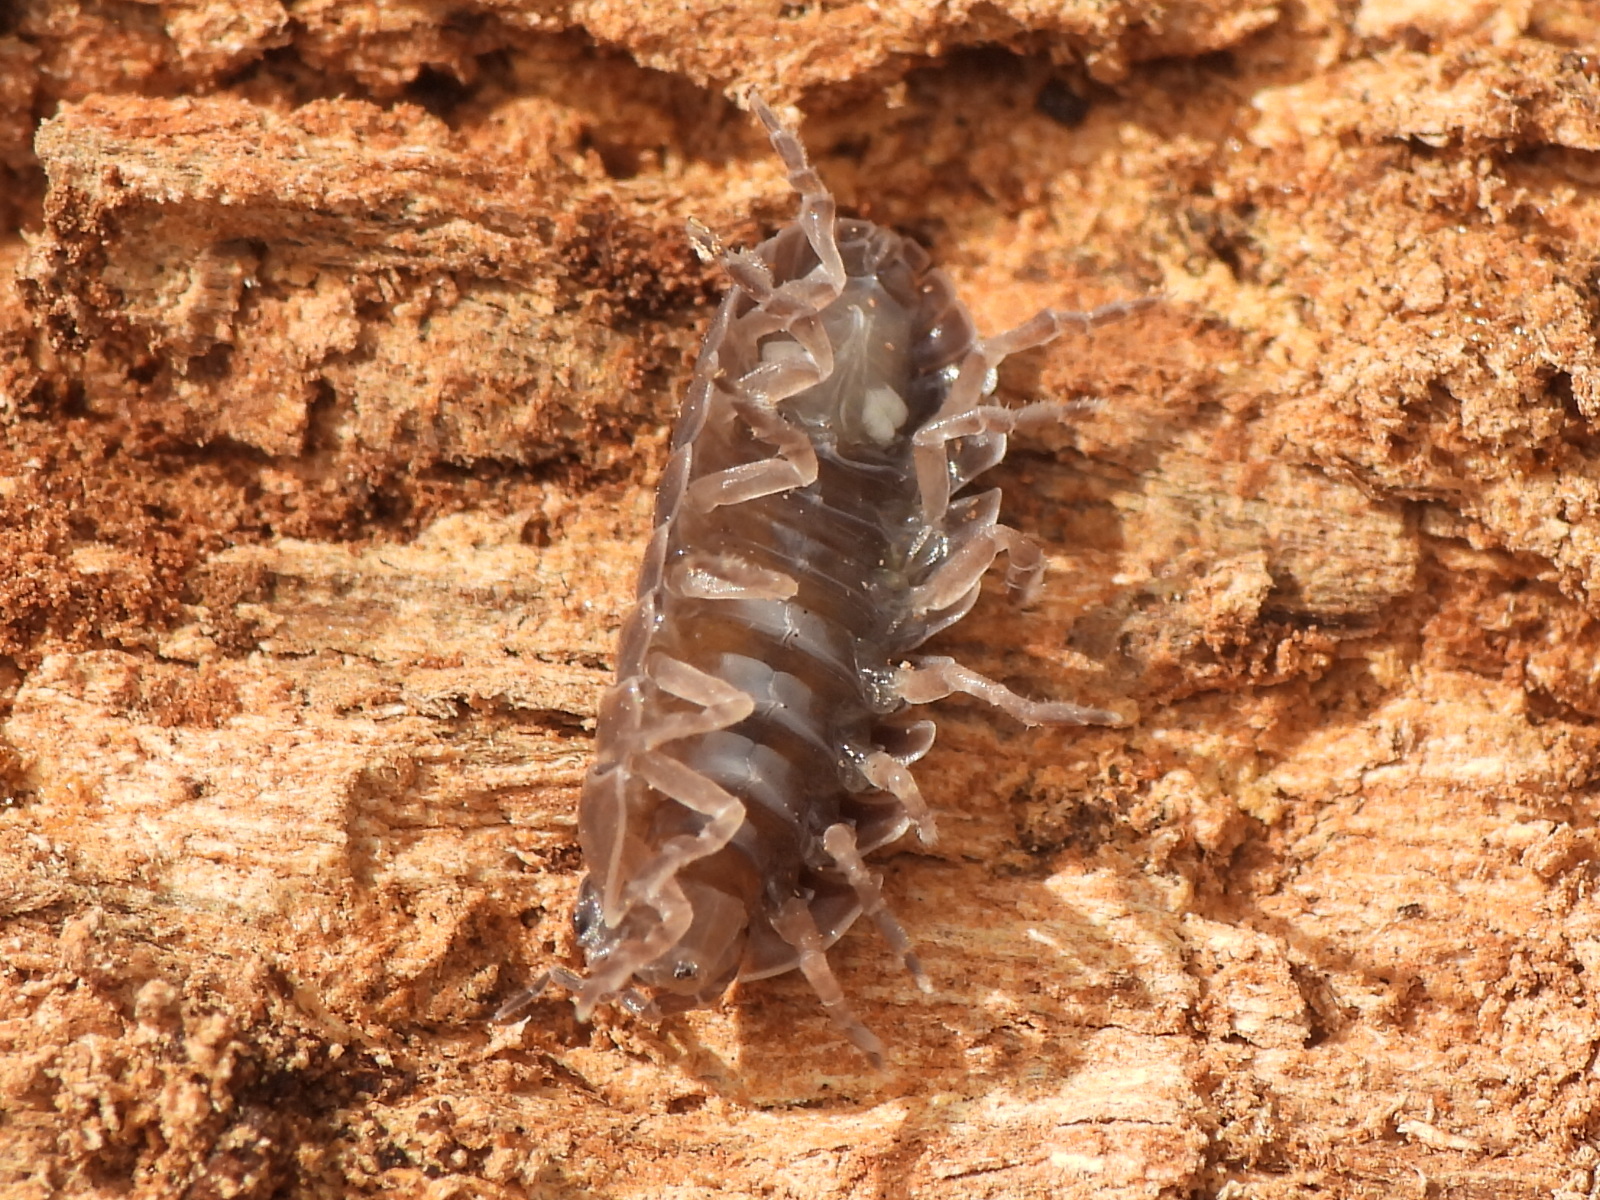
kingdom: Animalia
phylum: Arthropoda
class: Malacostraca
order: Isopoda
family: Armadillidiidae
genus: Armadillidium
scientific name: Armadillidium vulgare
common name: Common pill woodlouse
